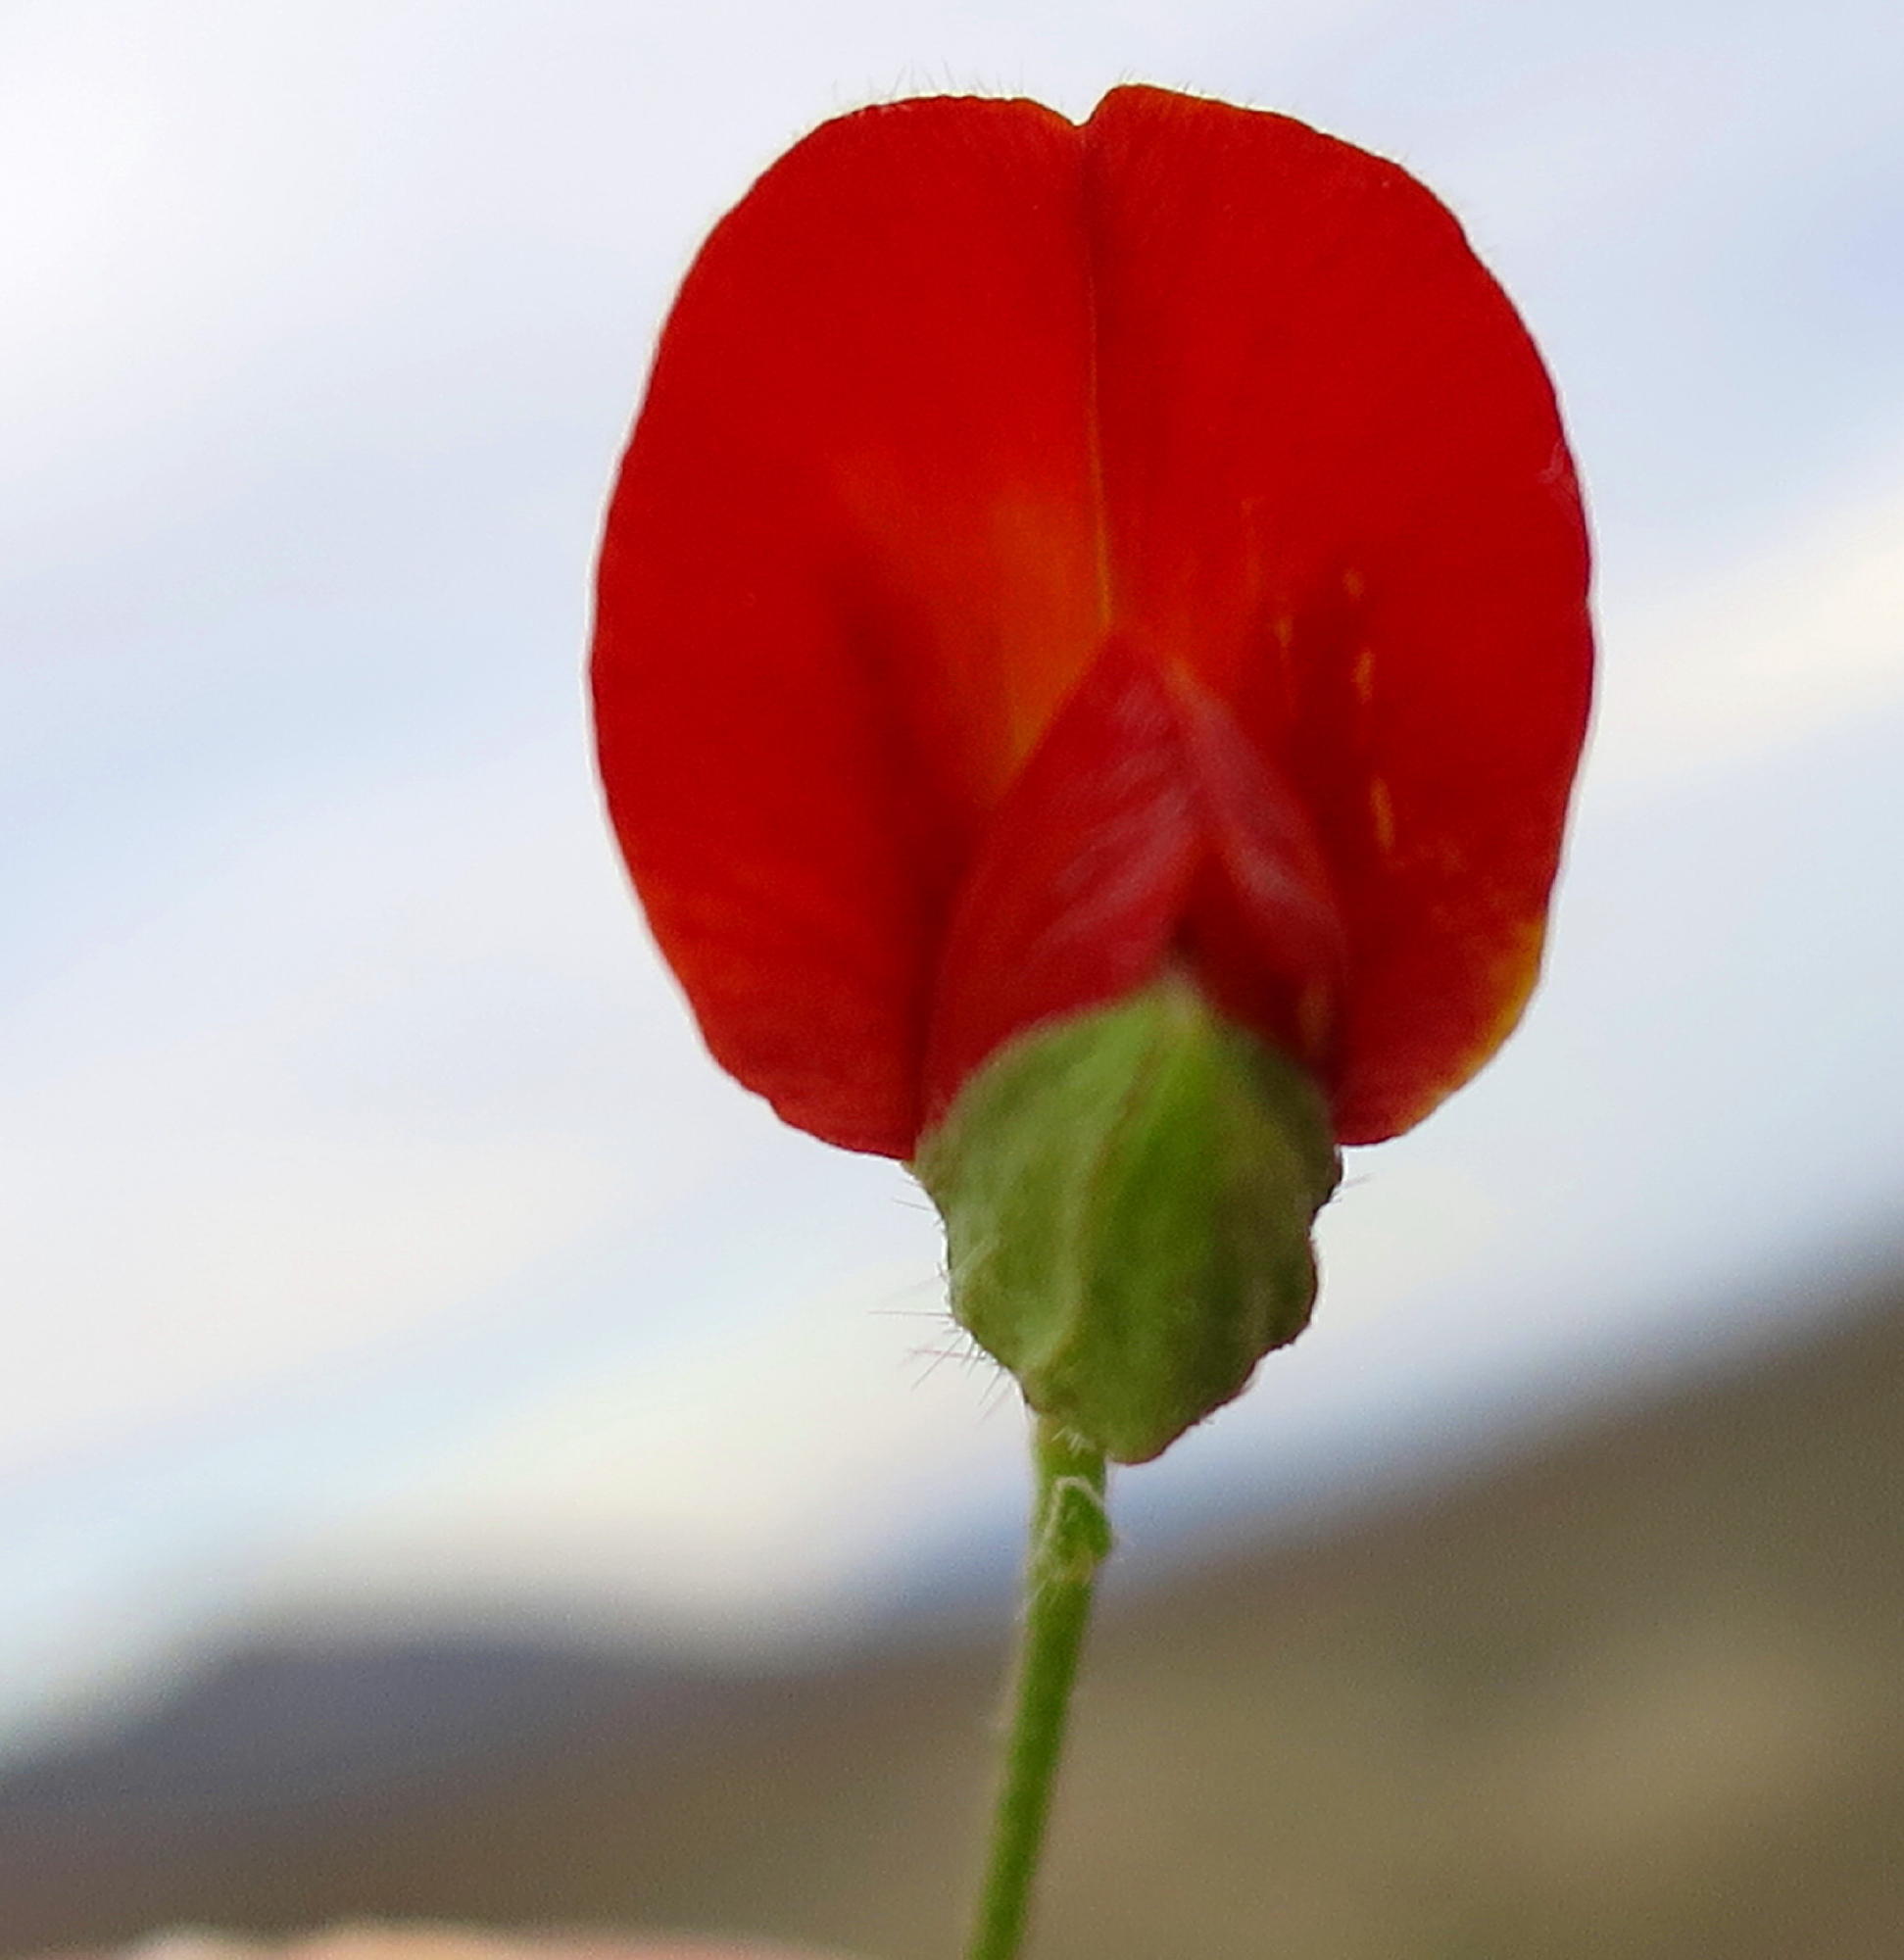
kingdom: Plantae
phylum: Tracheophyta
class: Magnoliopsida
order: Fabales
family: Fabaceae
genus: Argyrolobium
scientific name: Argyrolobium molle
